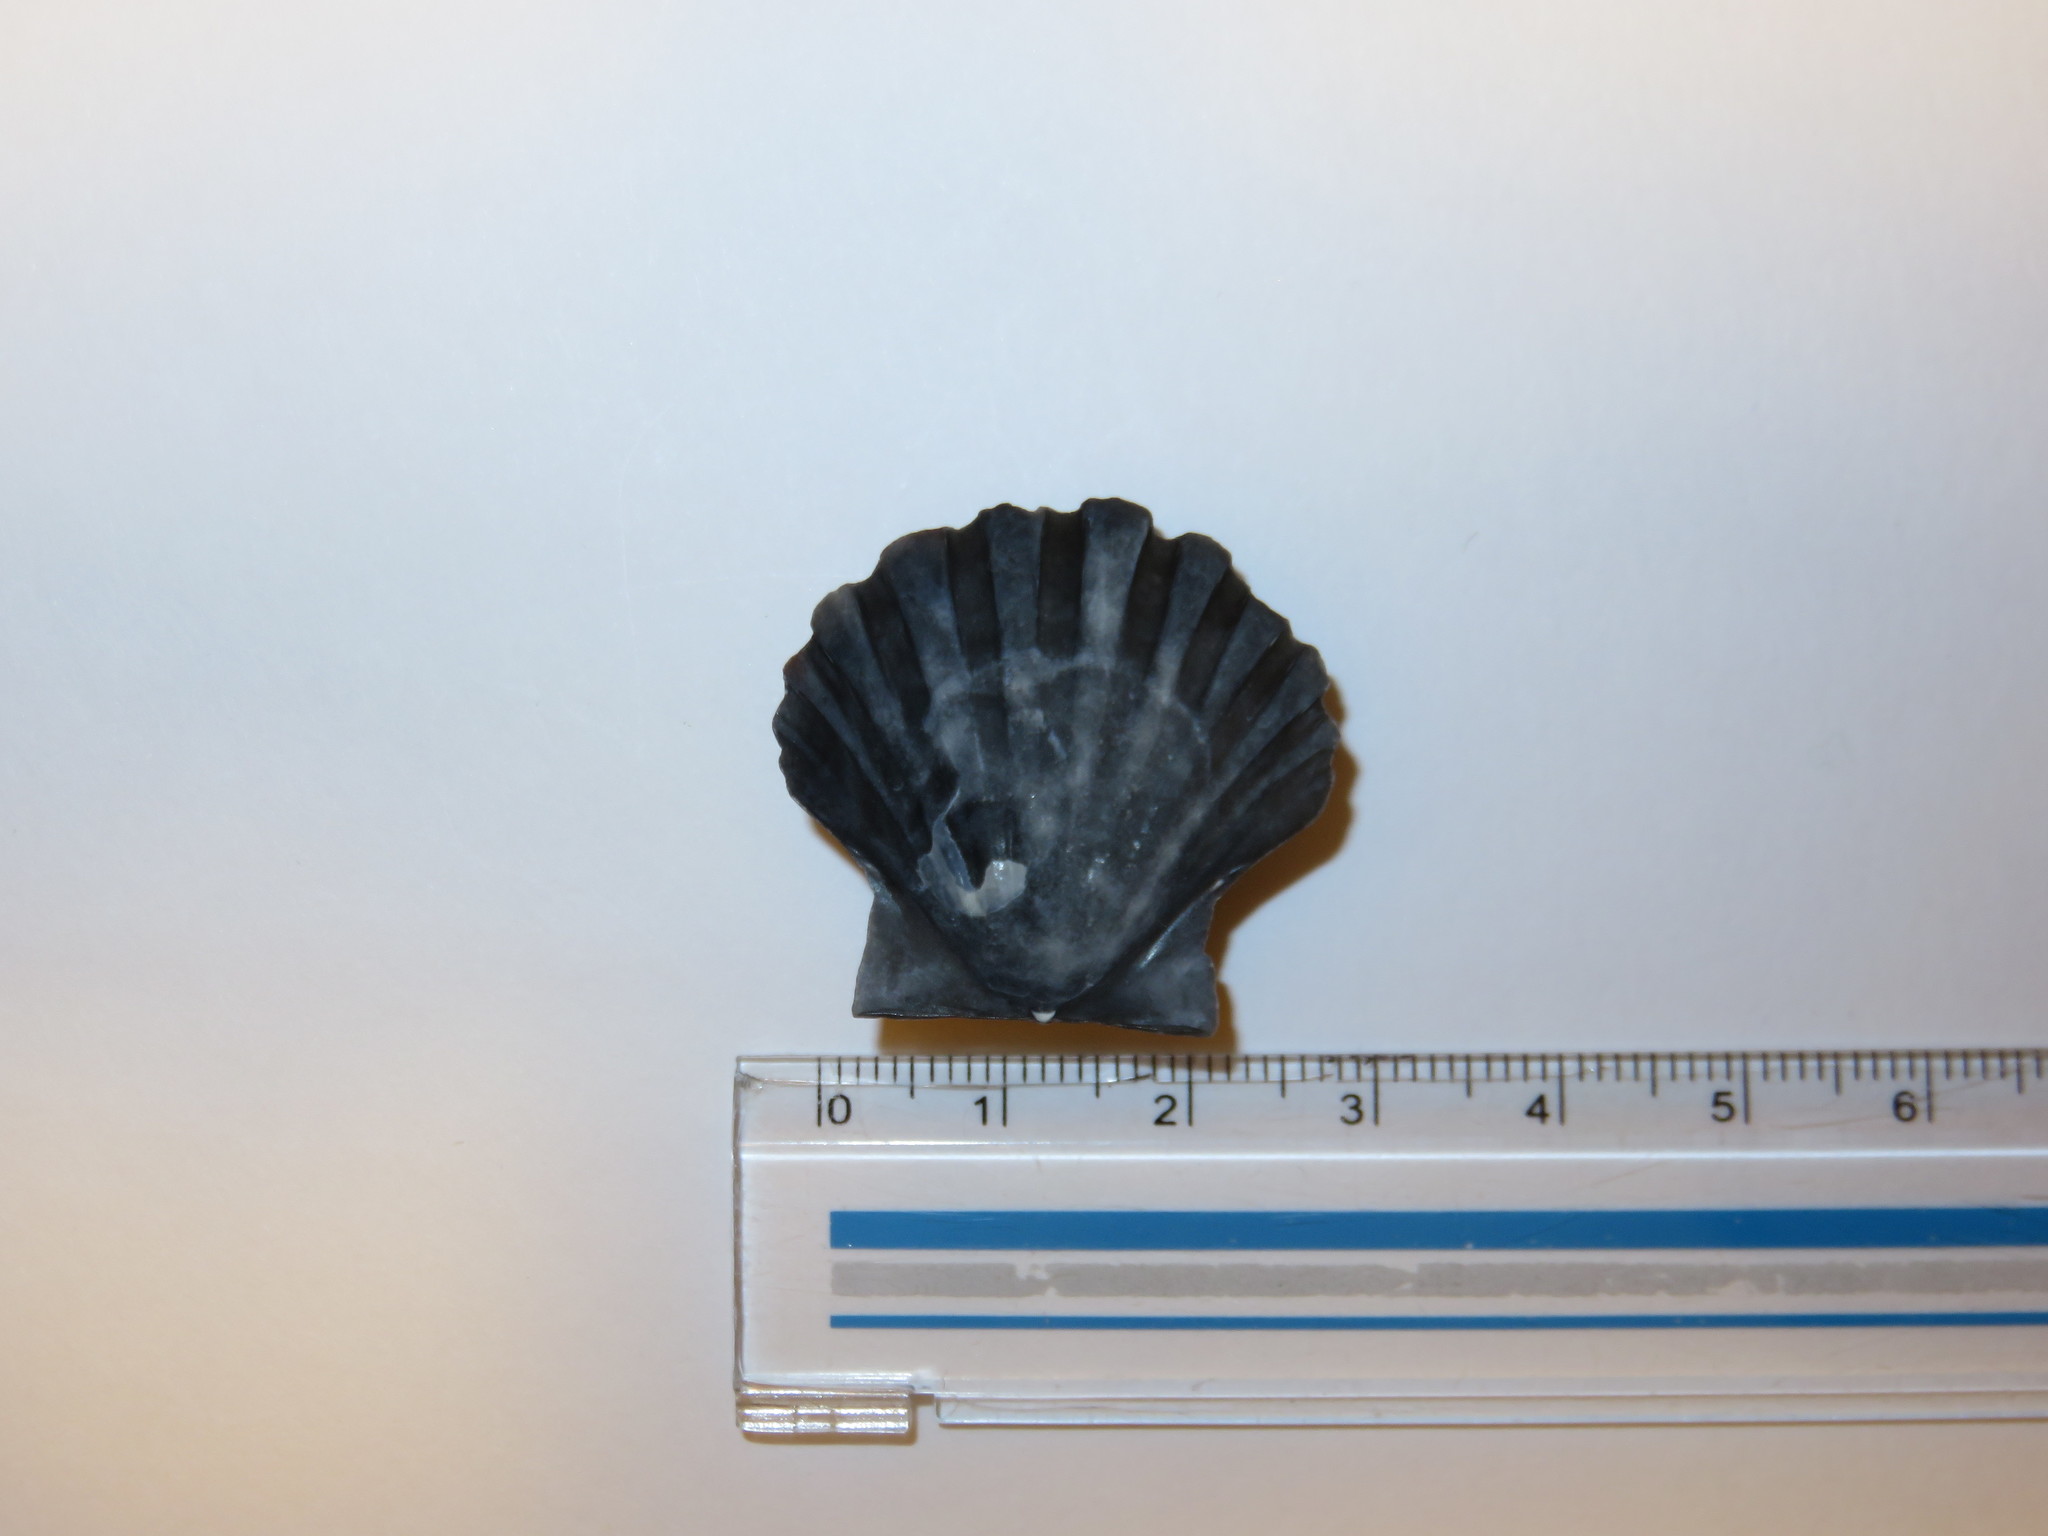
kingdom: Animalia
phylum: Mollusca
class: Bivalvia
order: Pectinida
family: Pectinidae
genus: Pecten
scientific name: Pecten albicans
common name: Japanese baking scallop
